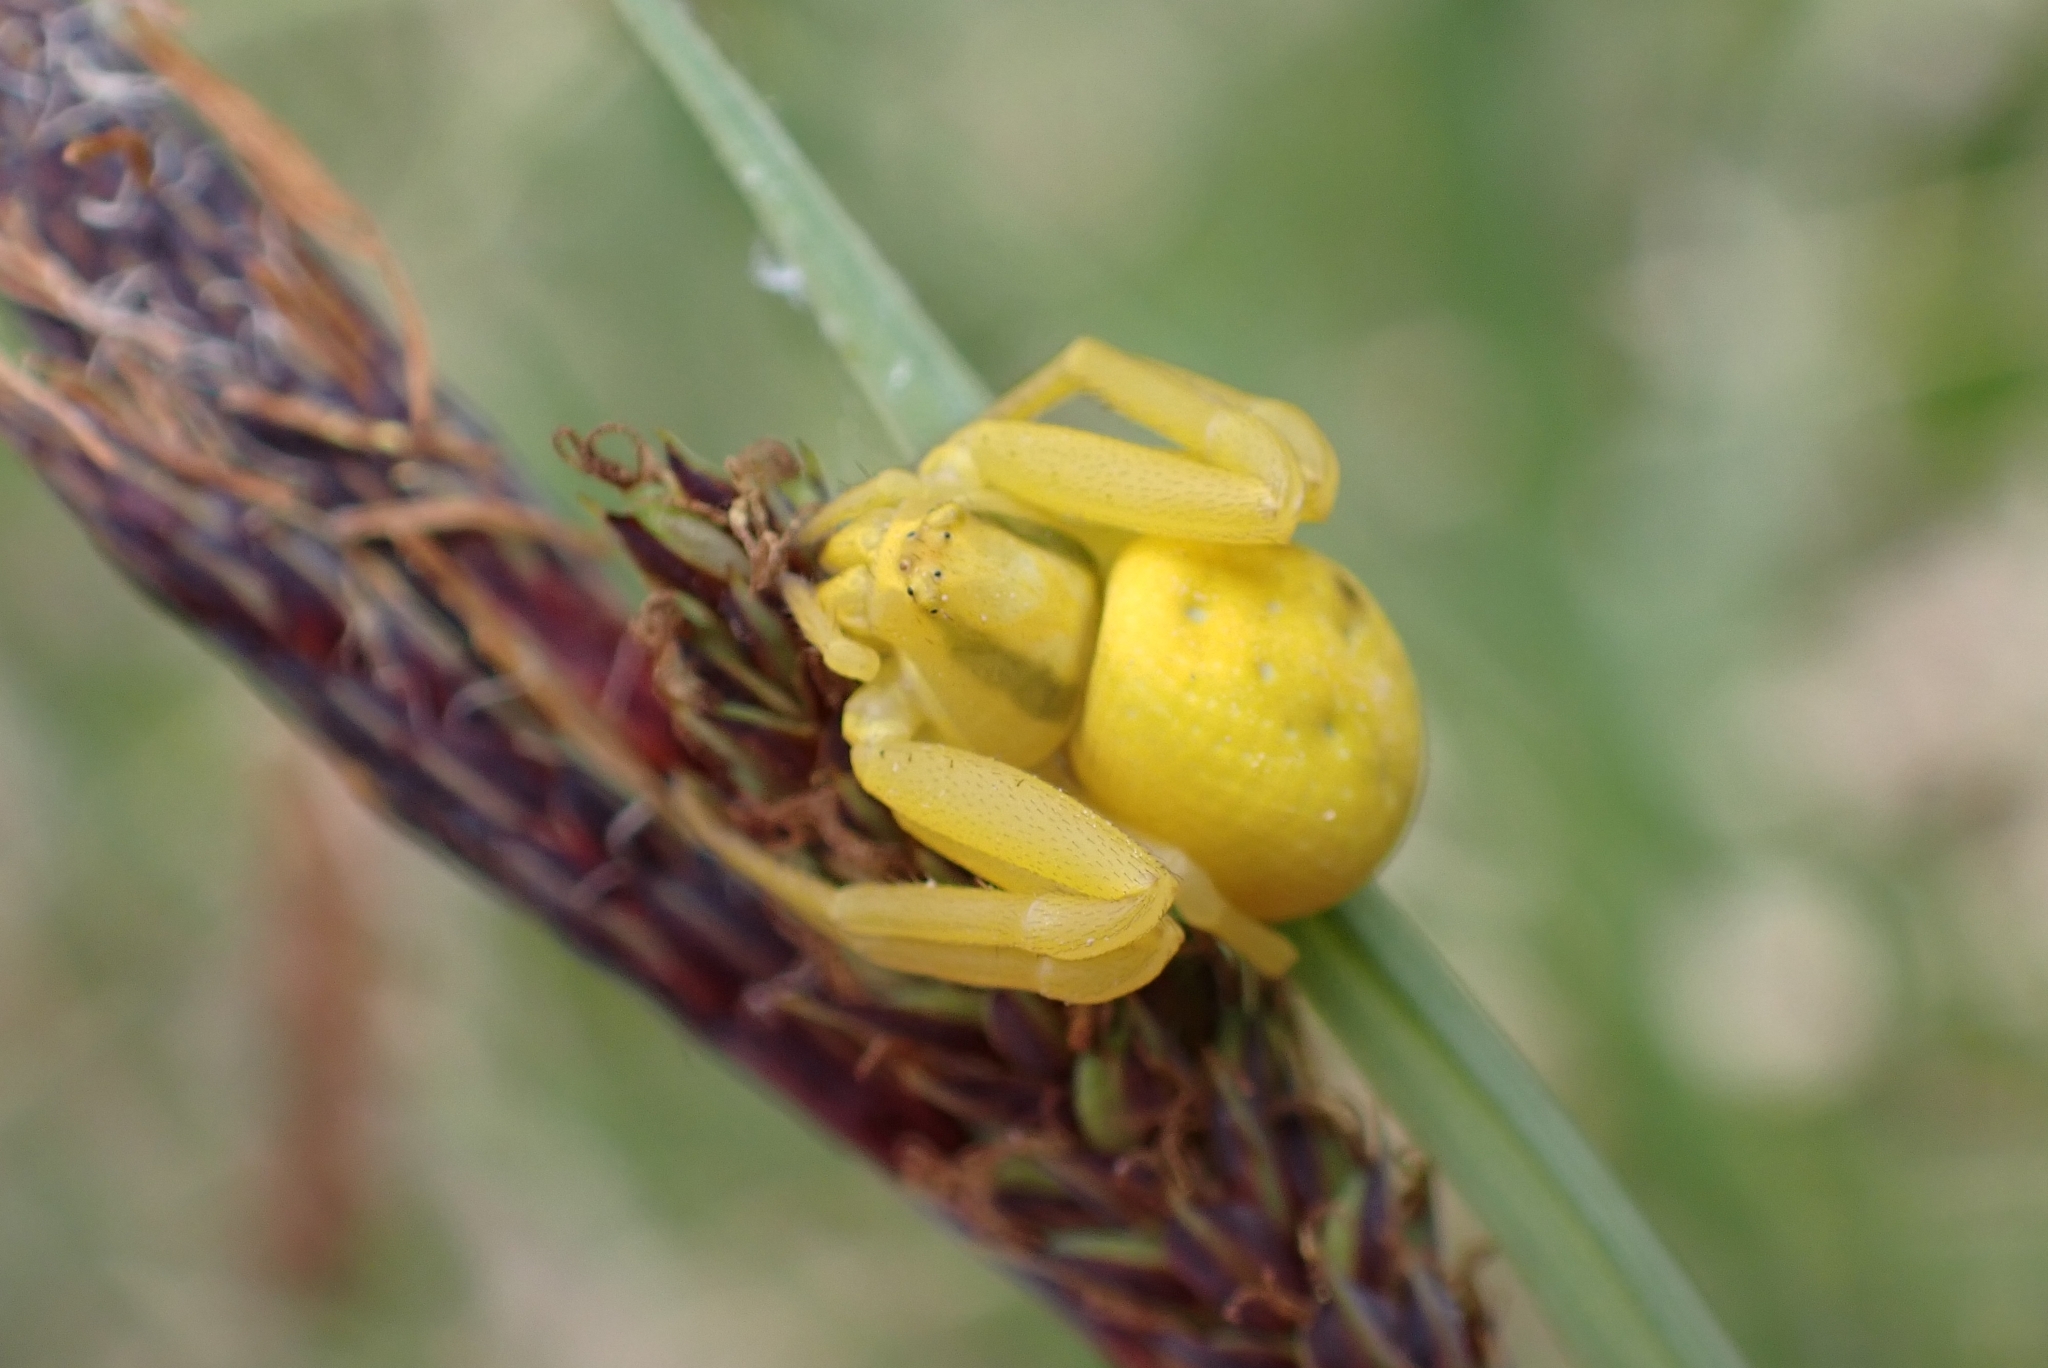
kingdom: Animalia
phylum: Arthropoda
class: Arachnida
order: Araneae
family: Thomisidae
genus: Misumena
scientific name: Misumena vatia
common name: Goldenrod crab spider
